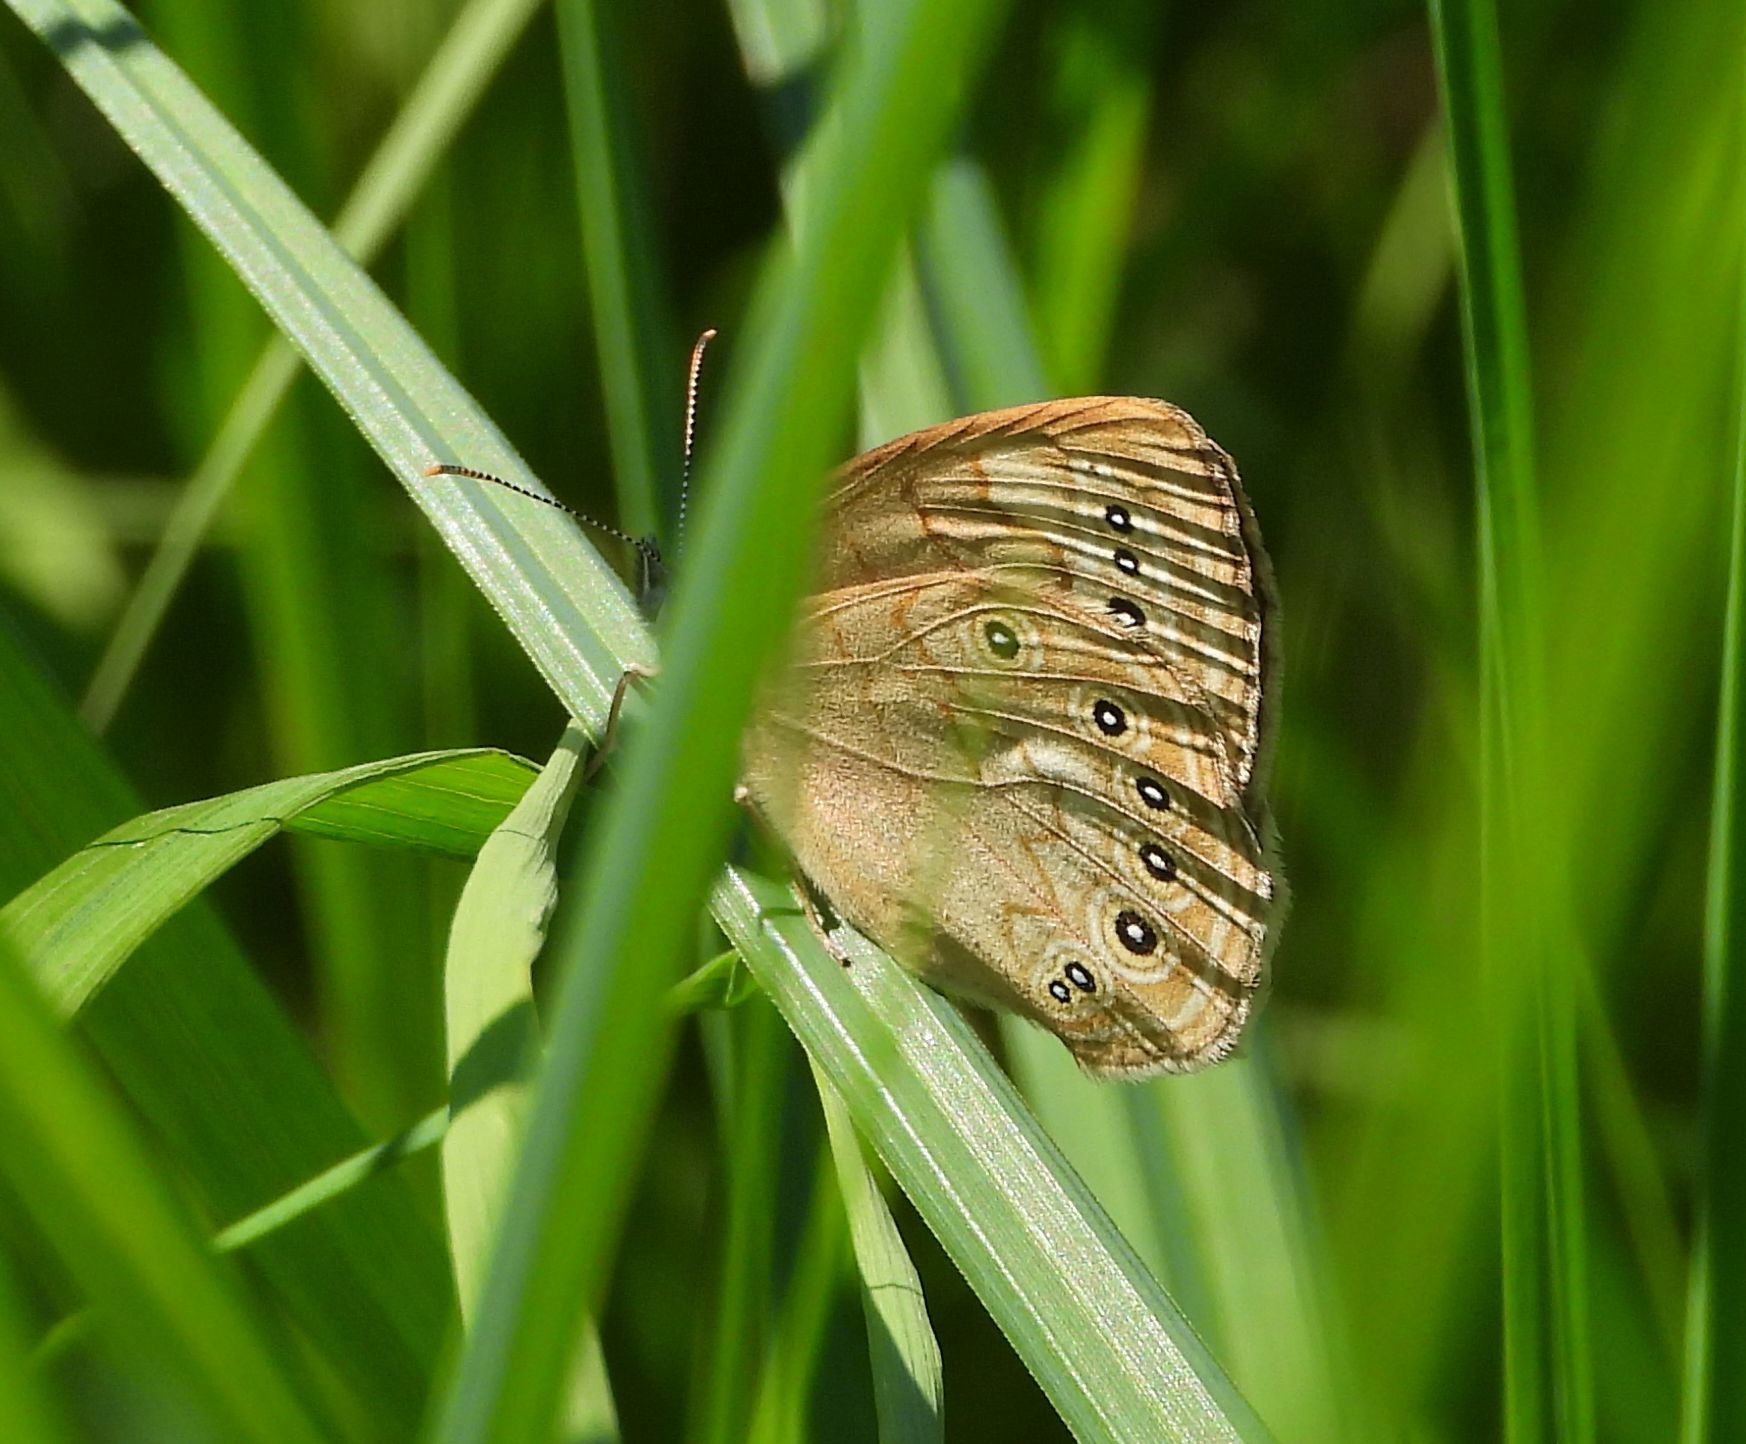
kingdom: Animalia
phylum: Arthropoda
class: Insecta
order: Lepidoptera
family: Nymphalidae
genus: Lethe
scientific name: Lethe eurydice
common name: Eyed brown
